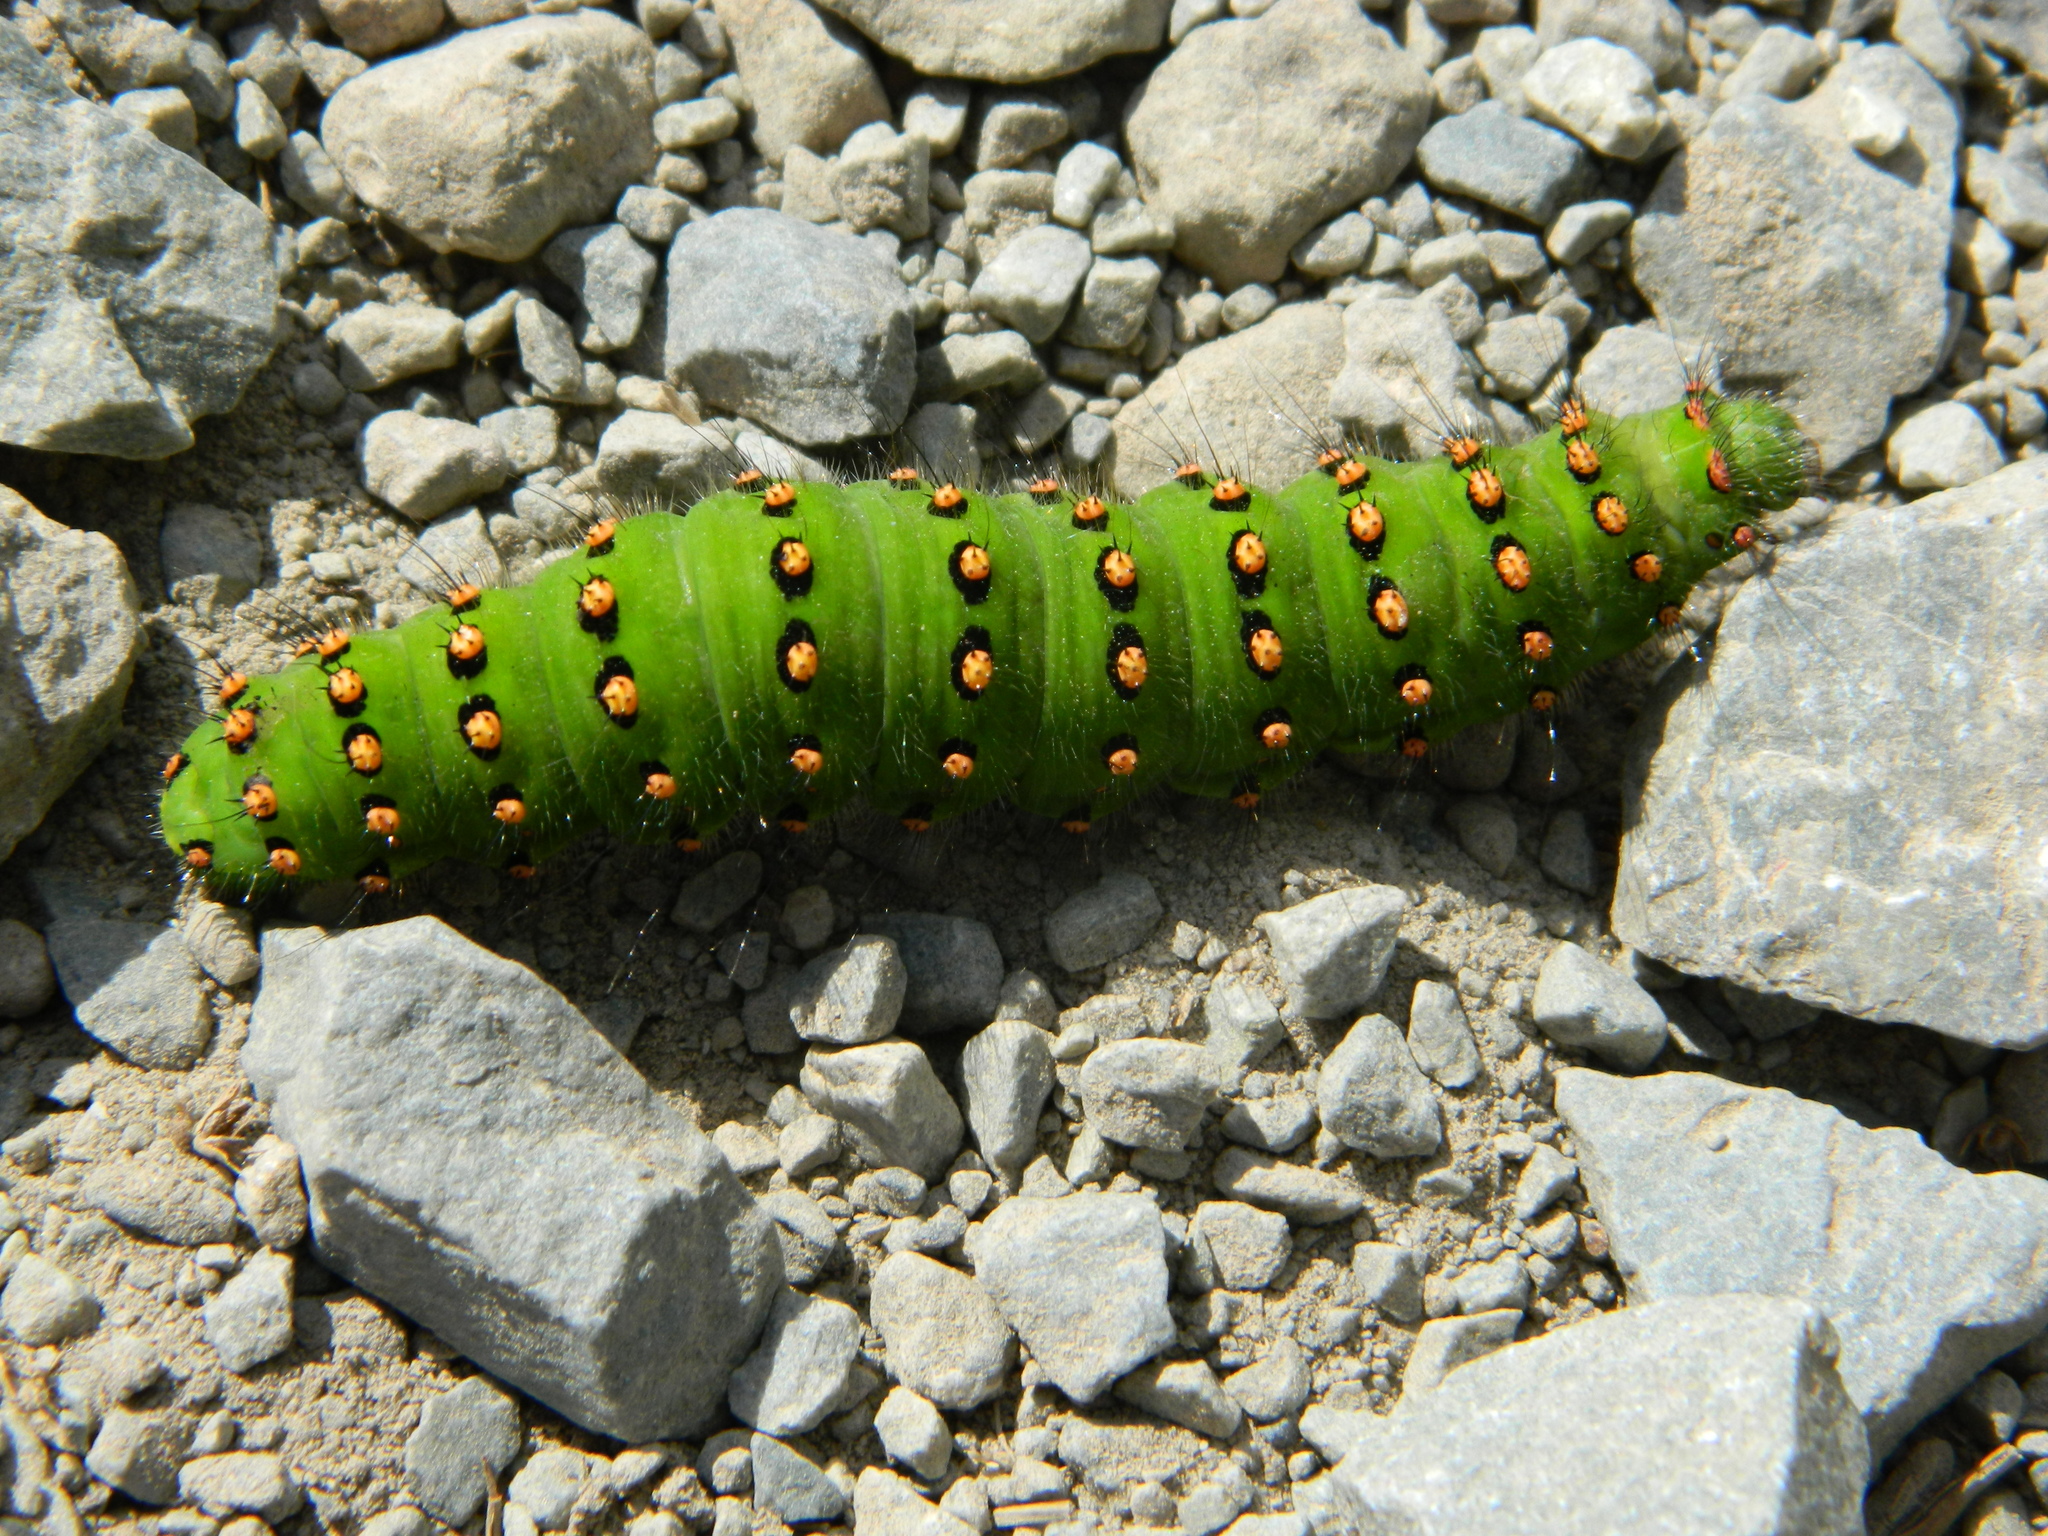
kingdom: Animalia
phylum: Arthropoda
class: Insecta
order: Lepidoptera
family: Saturniidae
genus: Saturnia
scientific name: Saturnia pavonia
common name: Emperor moth
